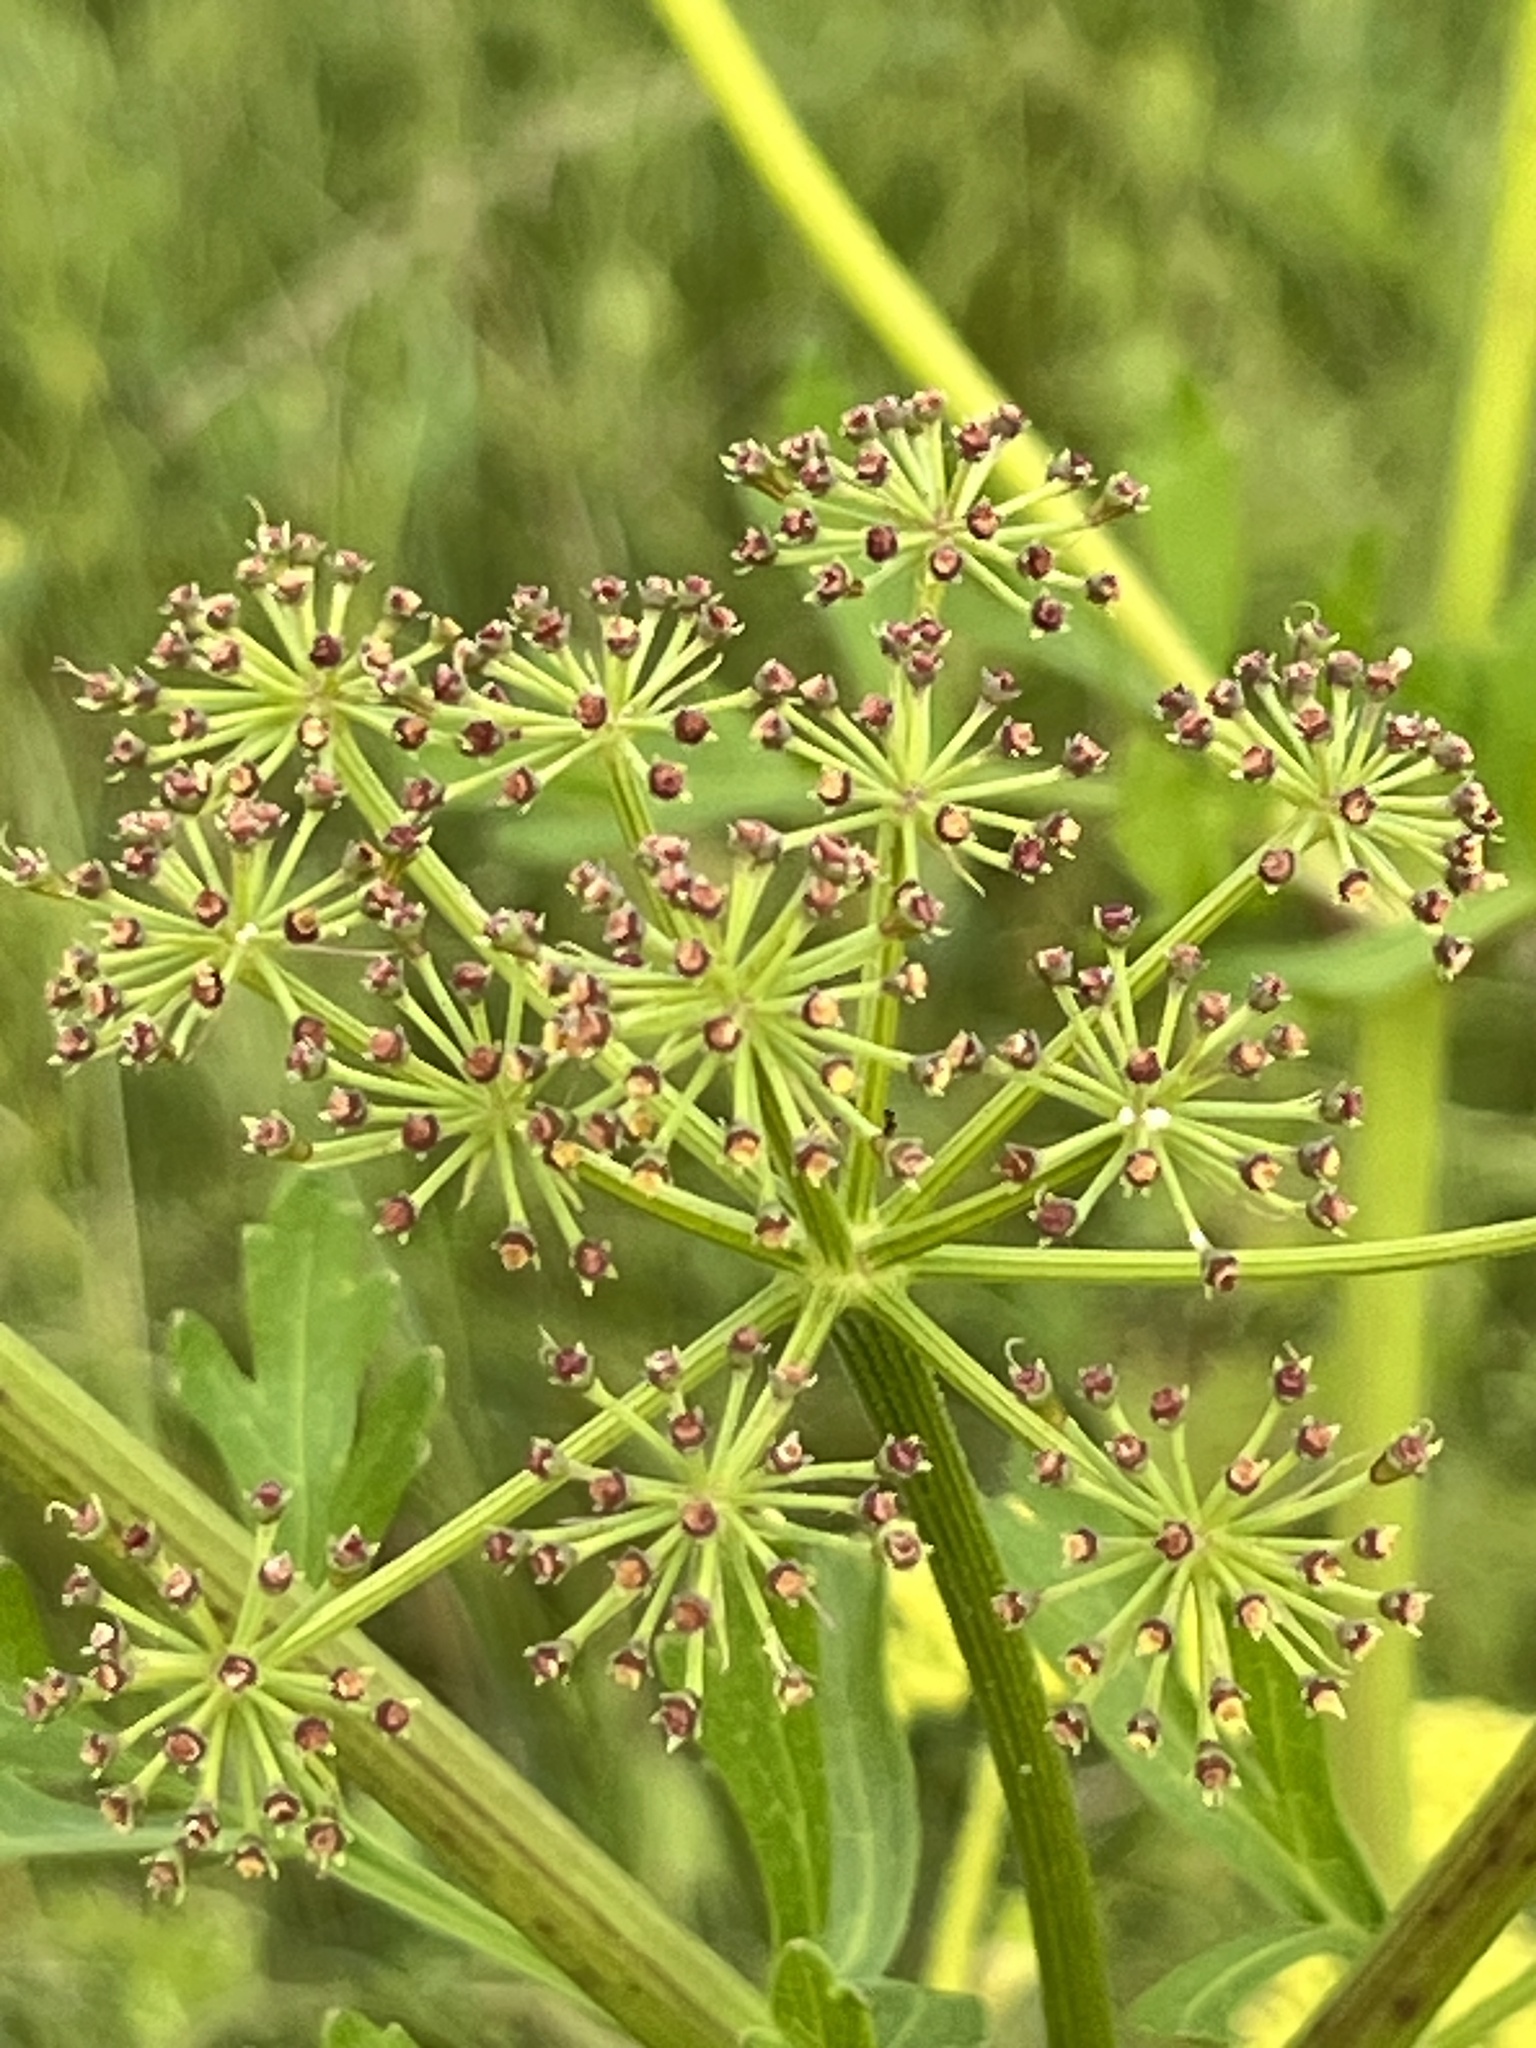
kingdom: Plantae
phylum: Tracheophyta
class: Magnoliopsida
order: Apiales
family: Apiaceae
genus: Polytaenia
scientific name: Polytaenia texana
